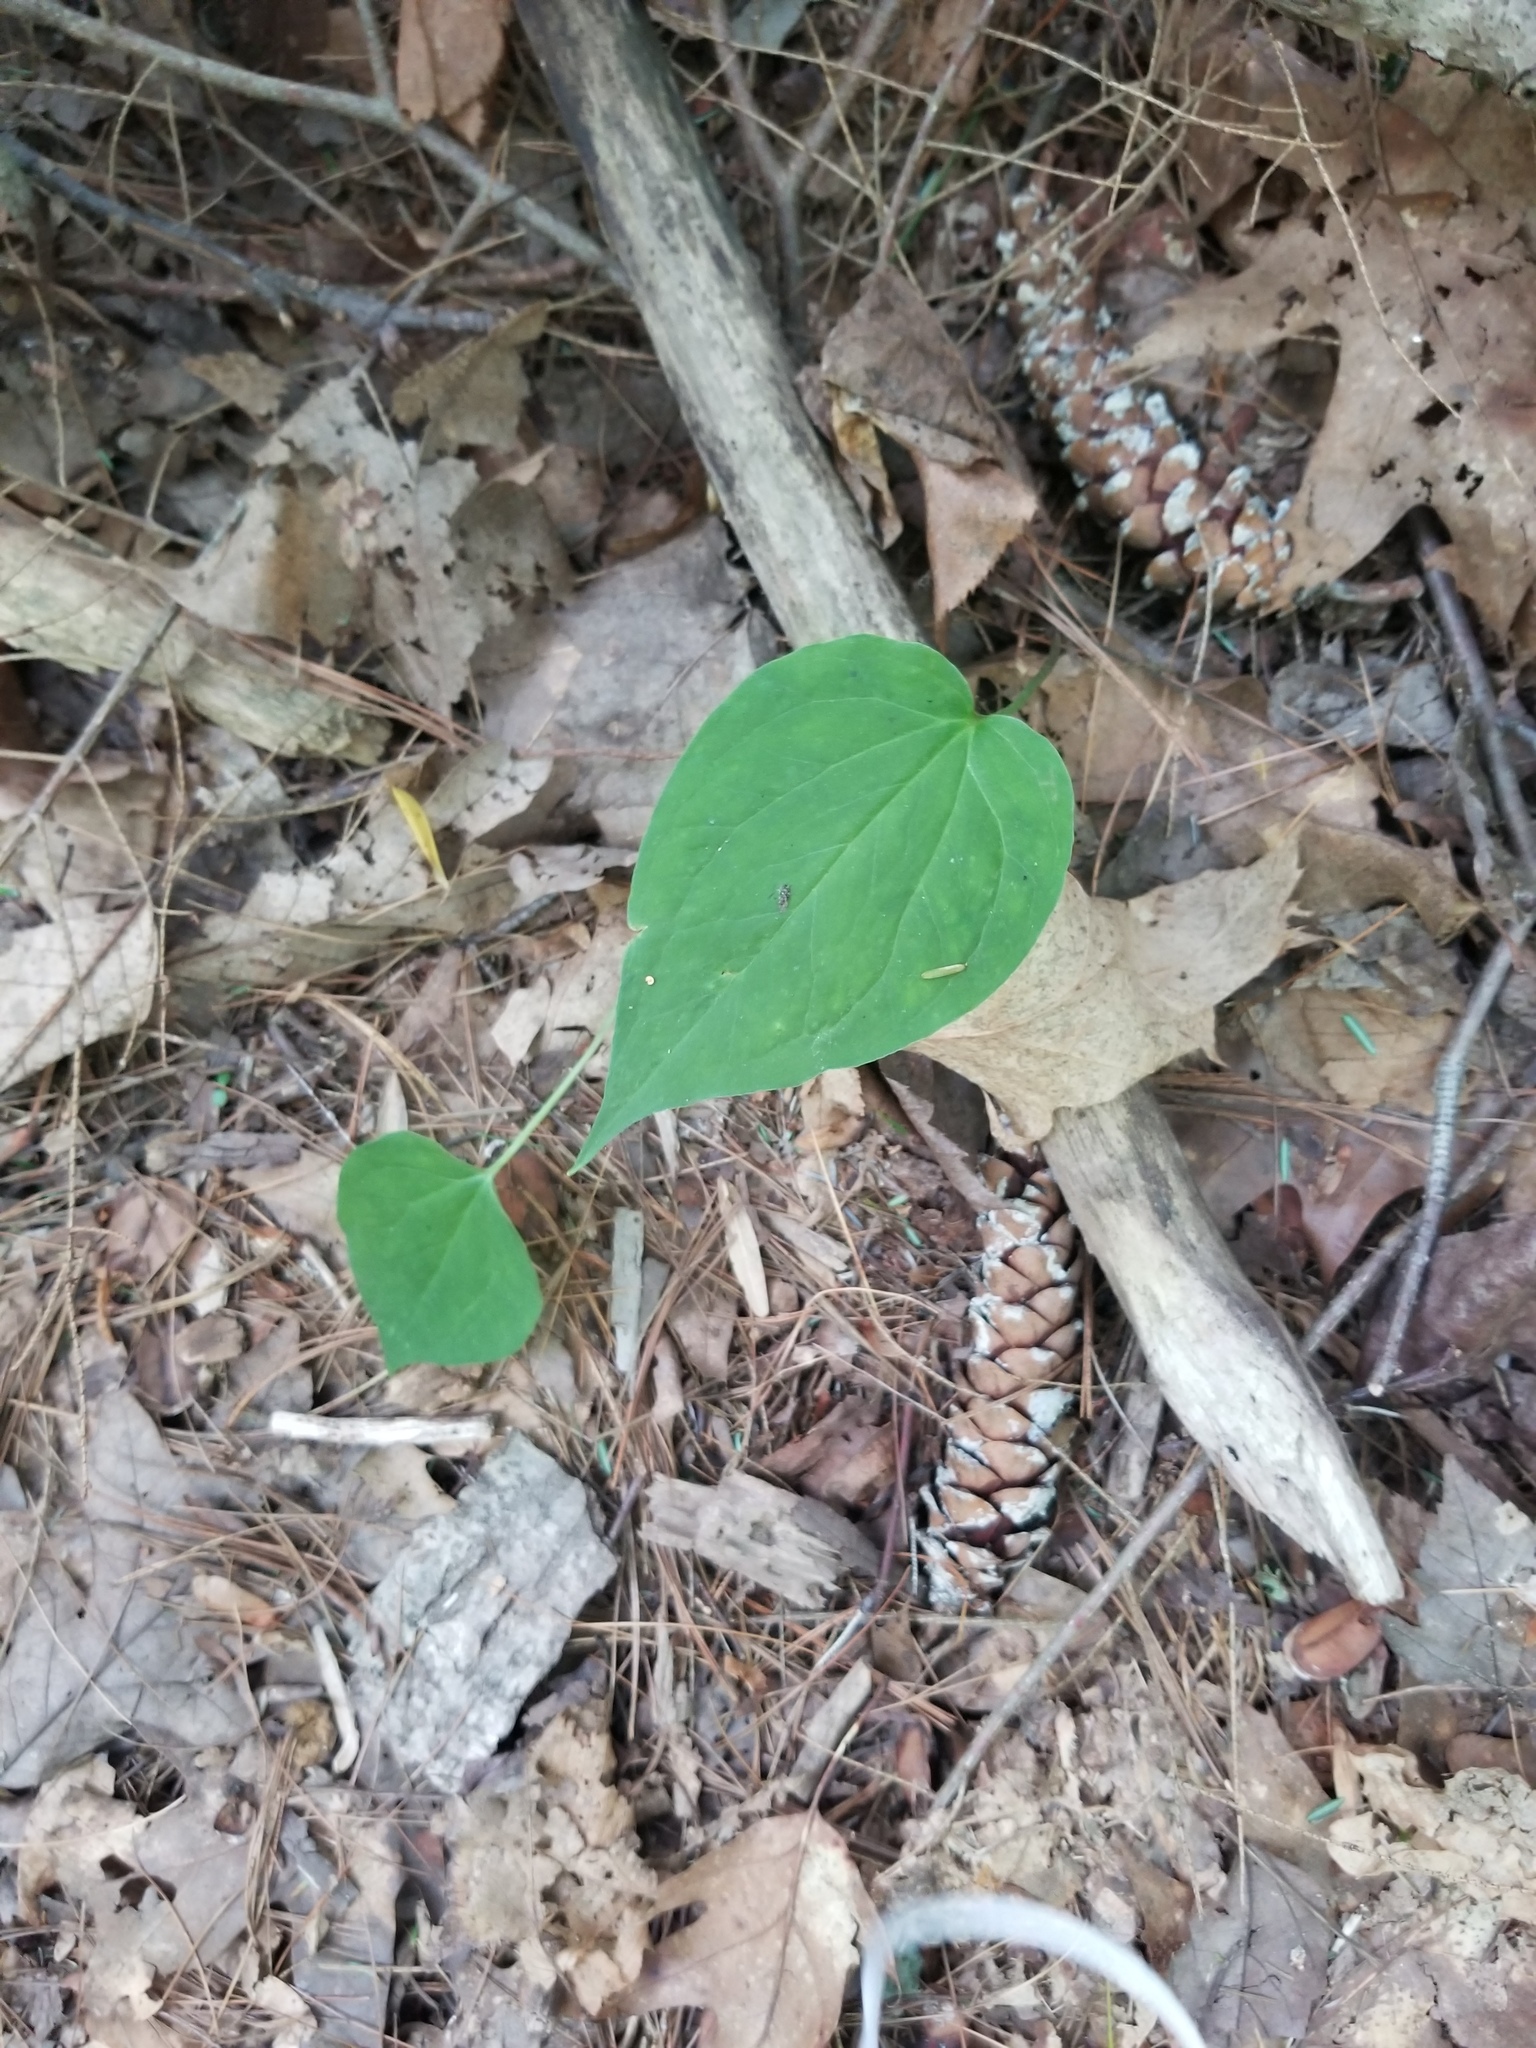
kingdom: Plantae
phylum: Tracheophyta
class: Liliopsida
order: Liliales
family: Melanthiaceae
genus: Trillium
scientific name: Trillium undulatum
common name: Paint trillium
